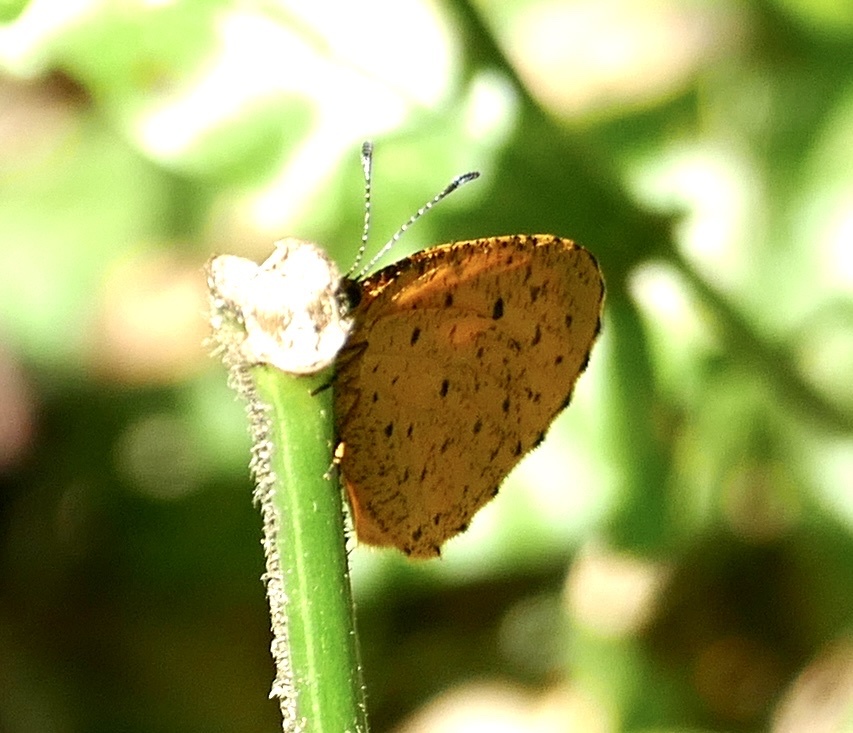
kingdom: Animalia
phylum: Arthropoda
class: Insecta
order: Lepidoptera
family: Lycaenidae
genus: Pentila
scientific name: Pentila tropicalis
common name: Spotted buff
